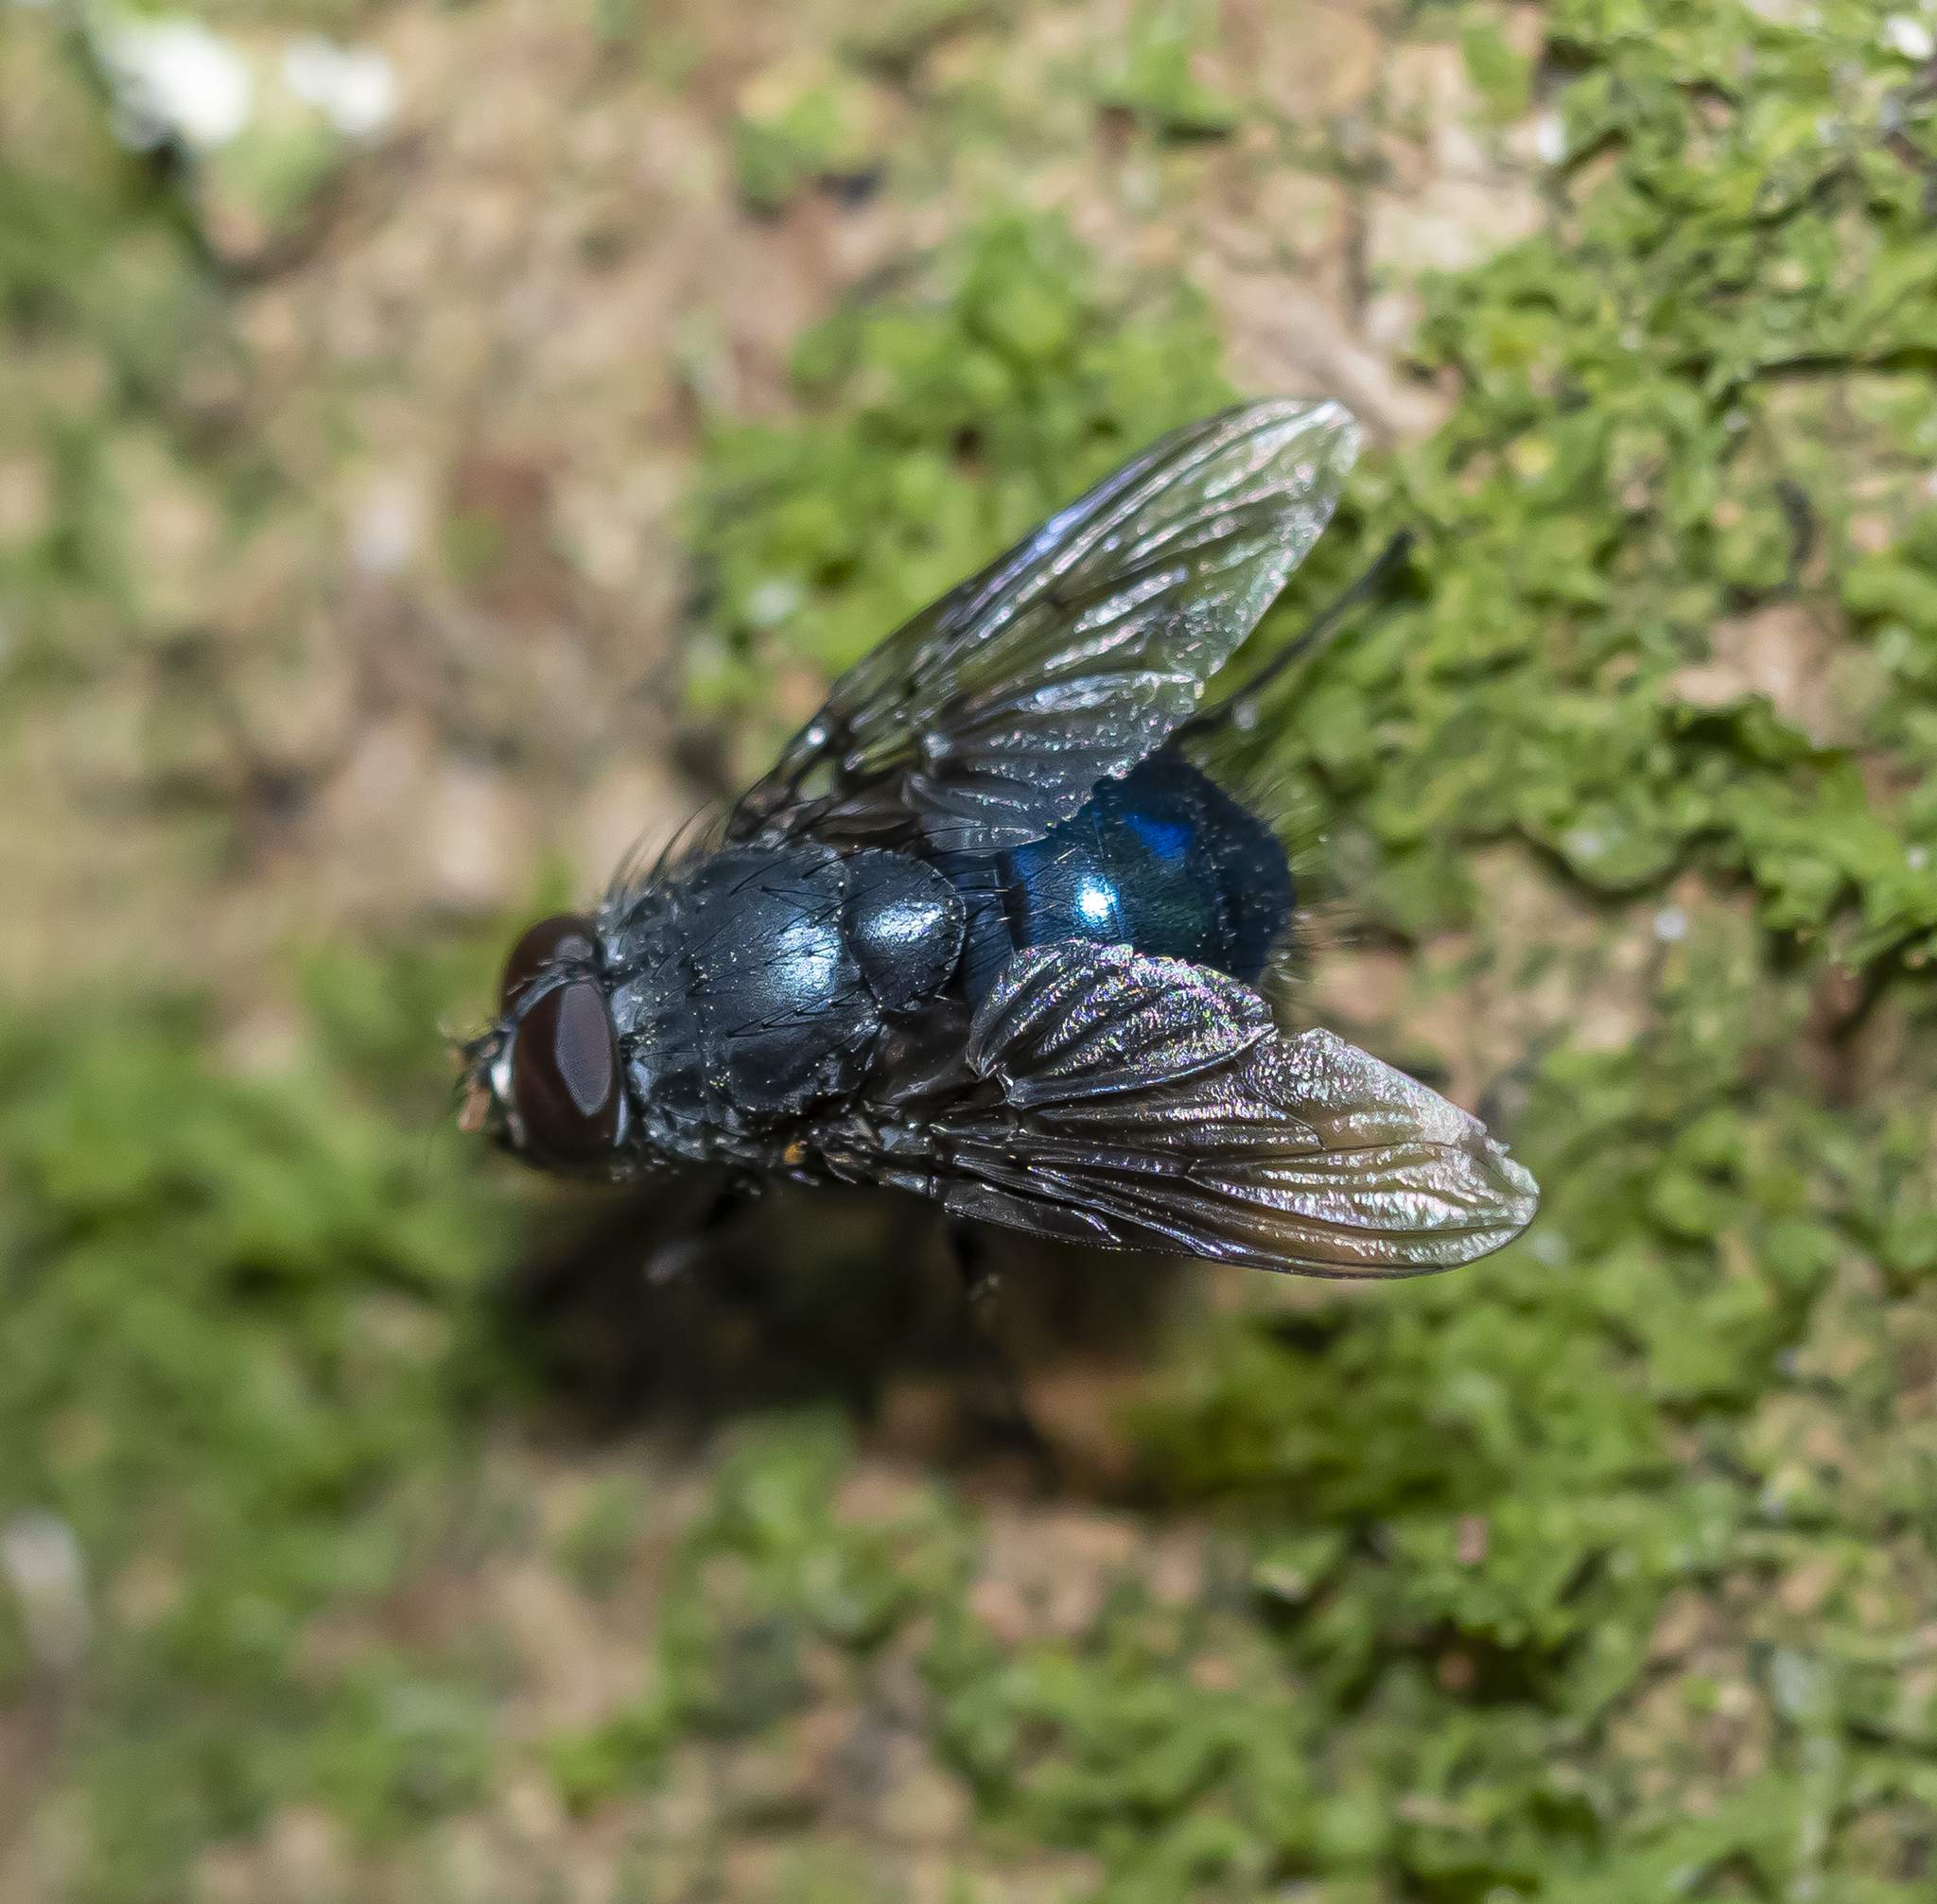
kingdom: Animalia
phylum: Arthropoda
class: Insecta
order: Diptera
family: Muscidae
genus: Calliphoroides
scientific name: Calliphoroides antennatis
